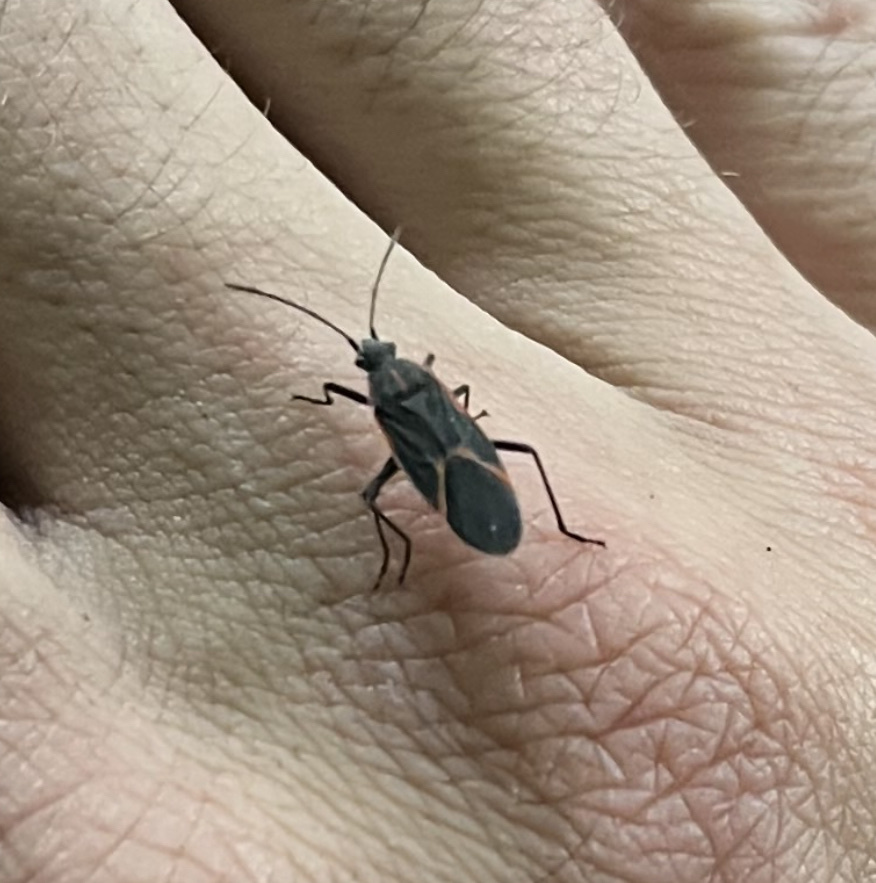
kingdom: Animalia
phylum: Arthropoda
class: Insecta
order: Hemiptera
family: Rhopalidae
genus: Boisea
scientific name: Boisea trivittata
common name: Boxelder bug
